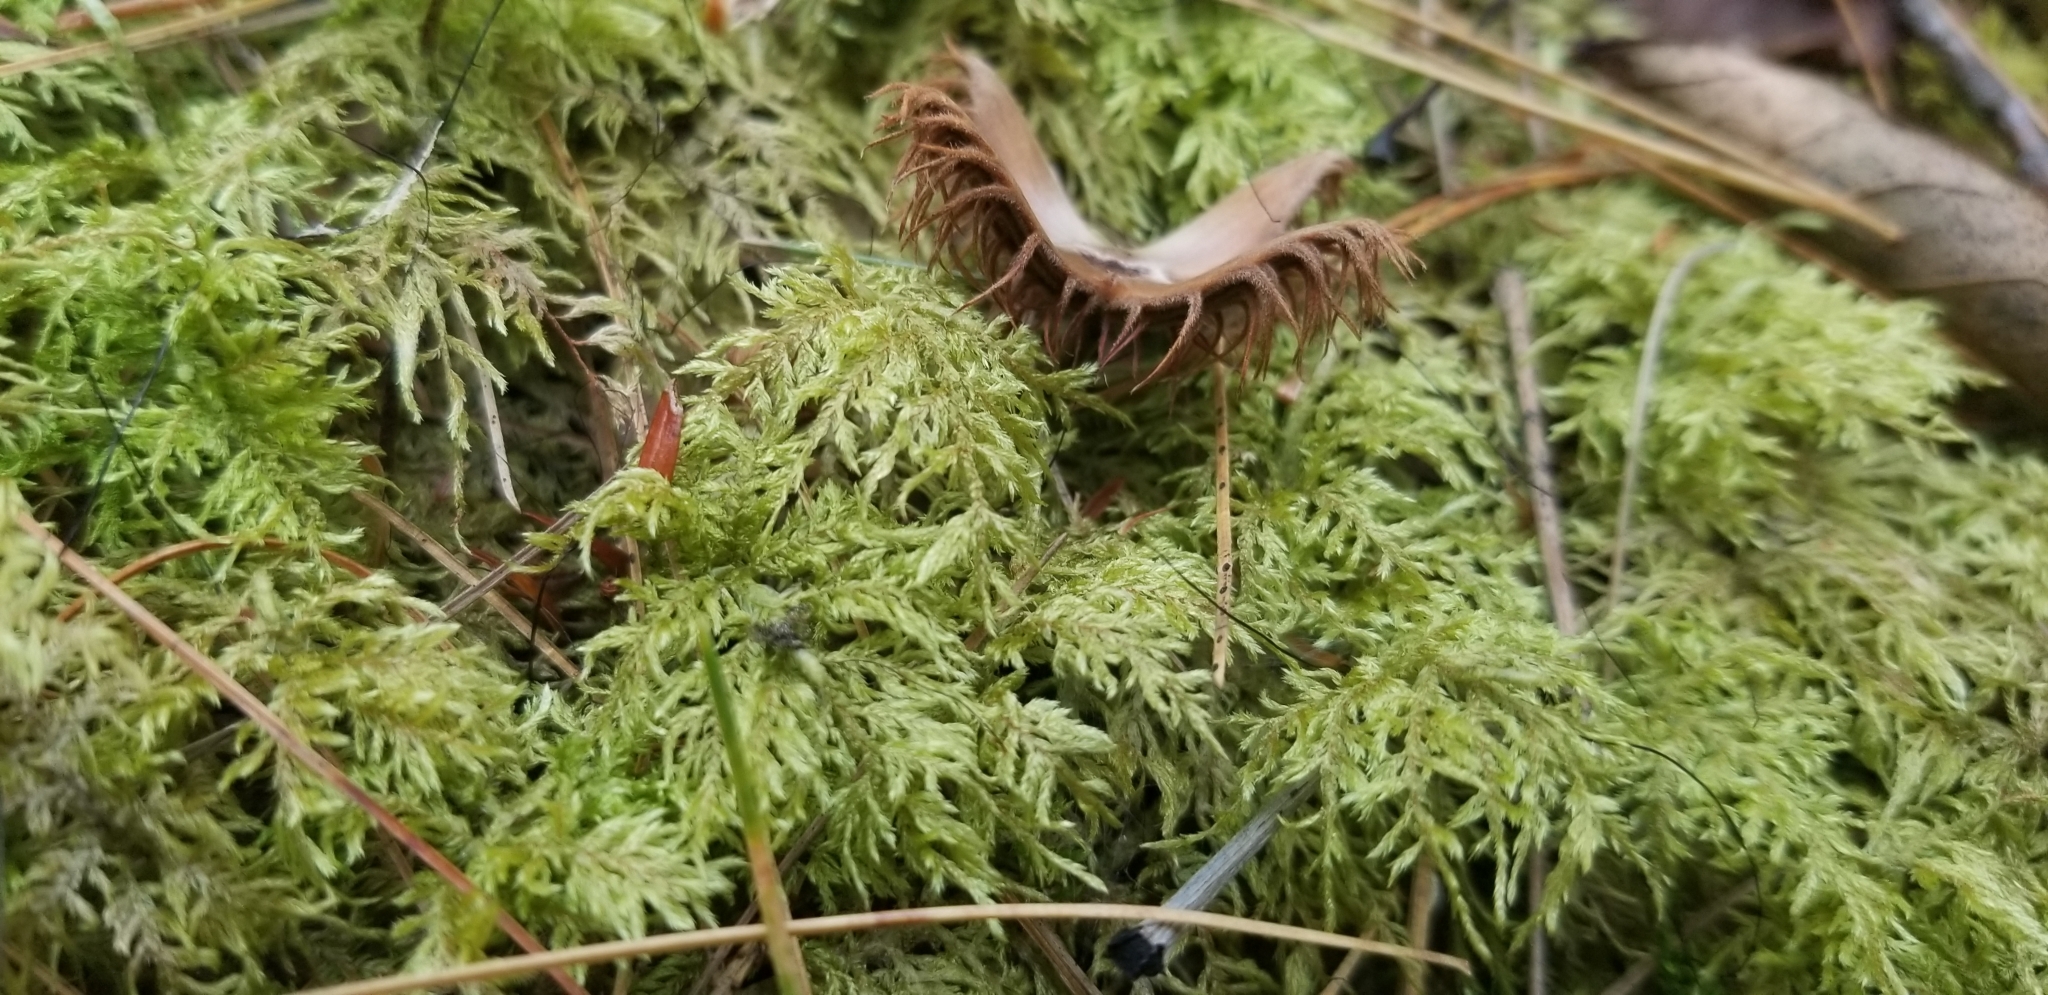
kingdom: Plantae
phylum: Bryophyta
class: Bryopsida
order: Hypnales
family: Hylocomiaceae
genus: Hylocomium
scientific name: Hylocomium splendens
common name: Stairstep moss
